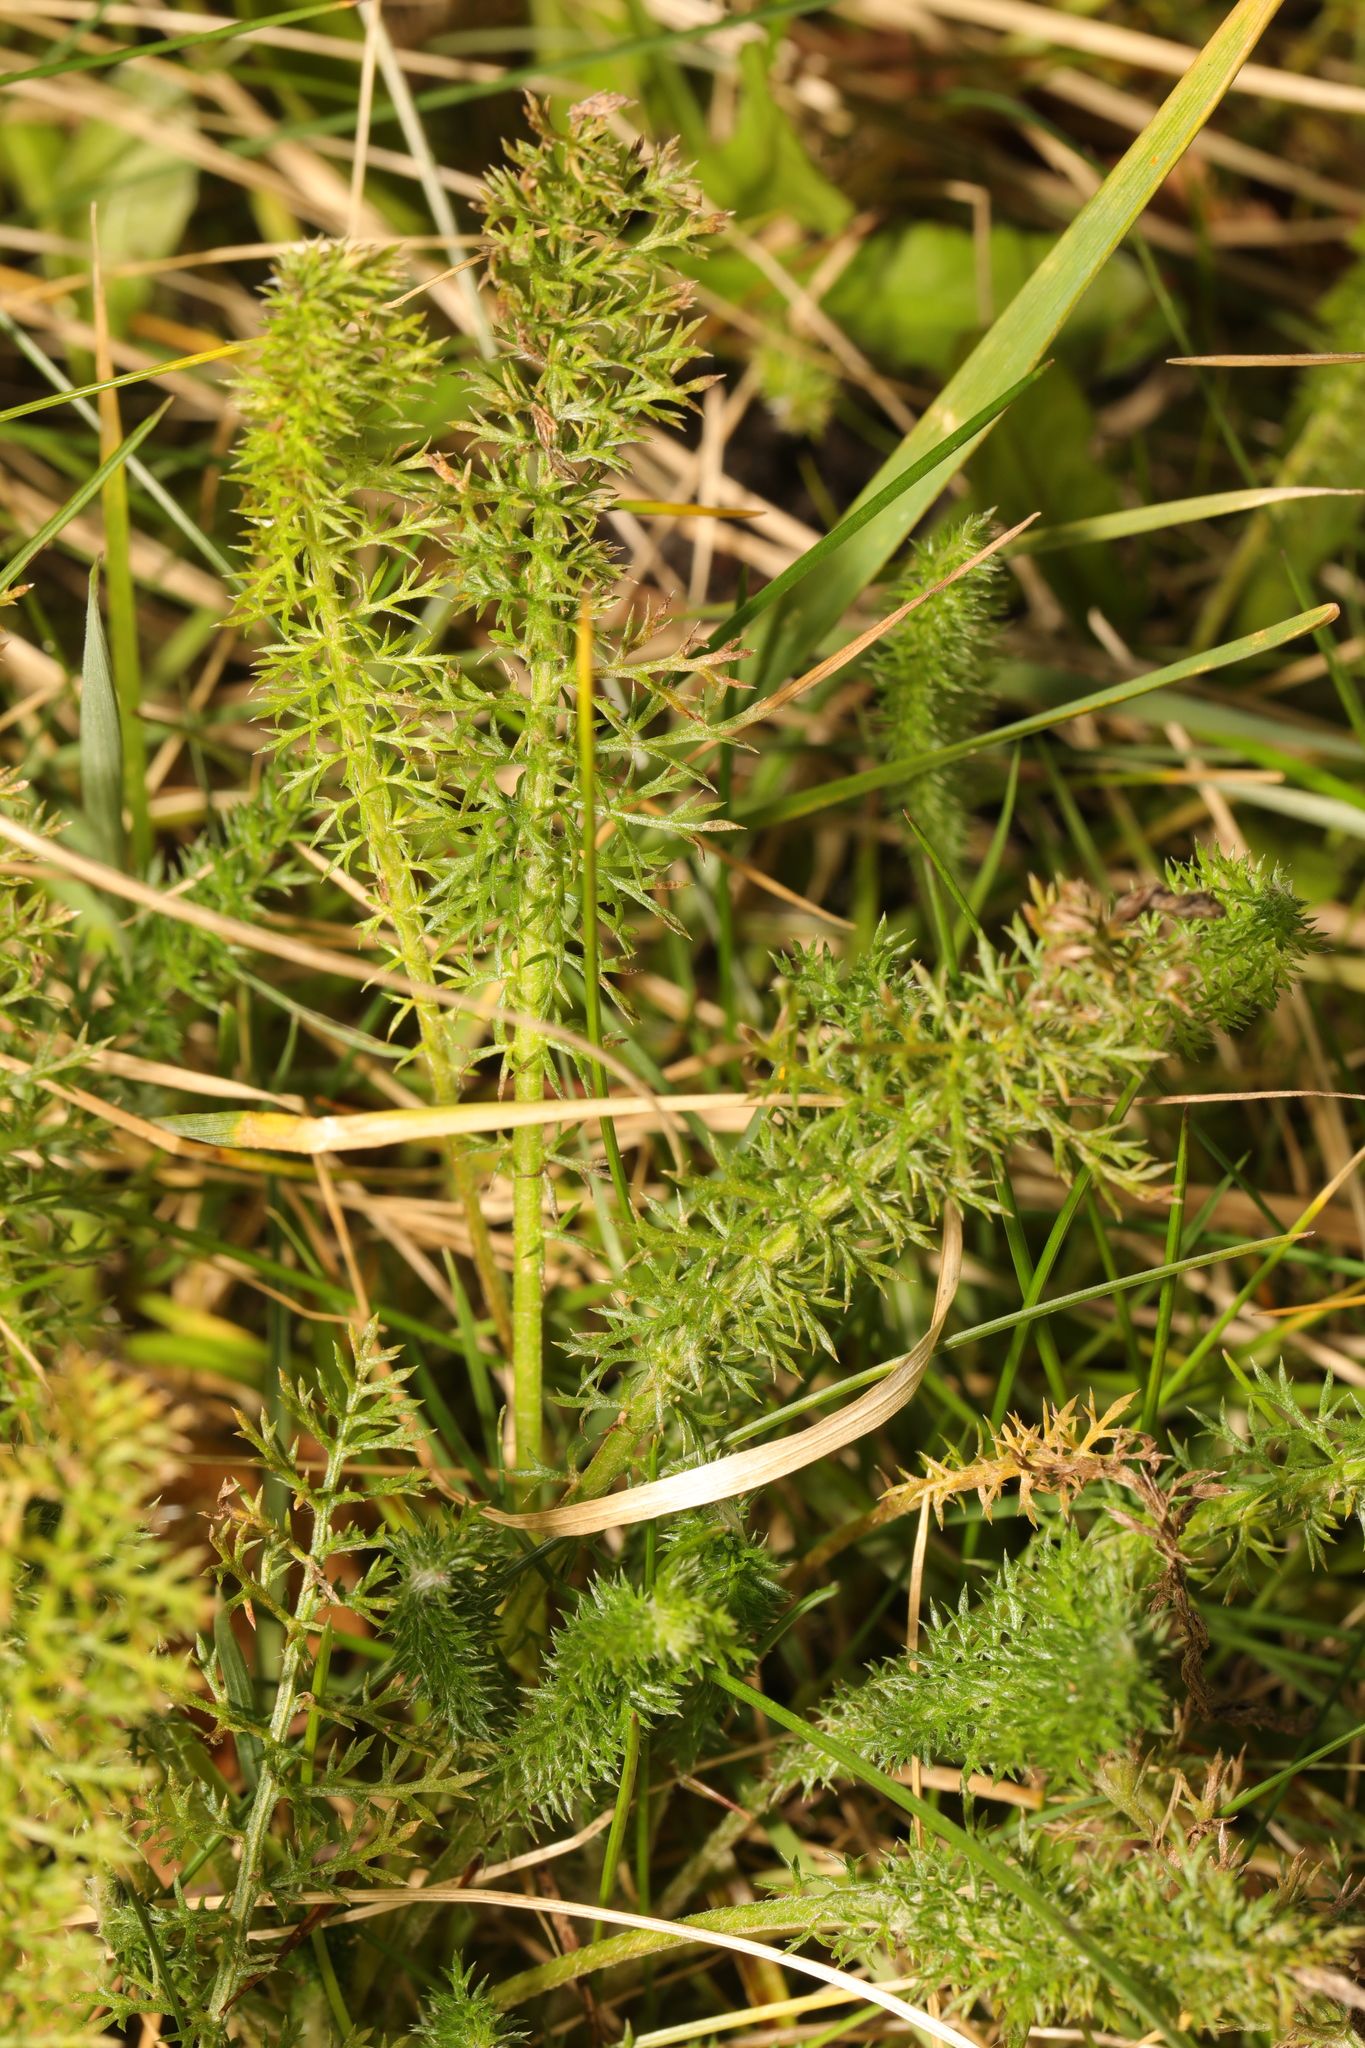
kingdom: Plantae
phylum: Tracheophyta
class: Magnoliopsida
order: Asterales
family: Asteraceae
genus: Achillea
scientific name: Achillea millefolium
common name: Yarrow
